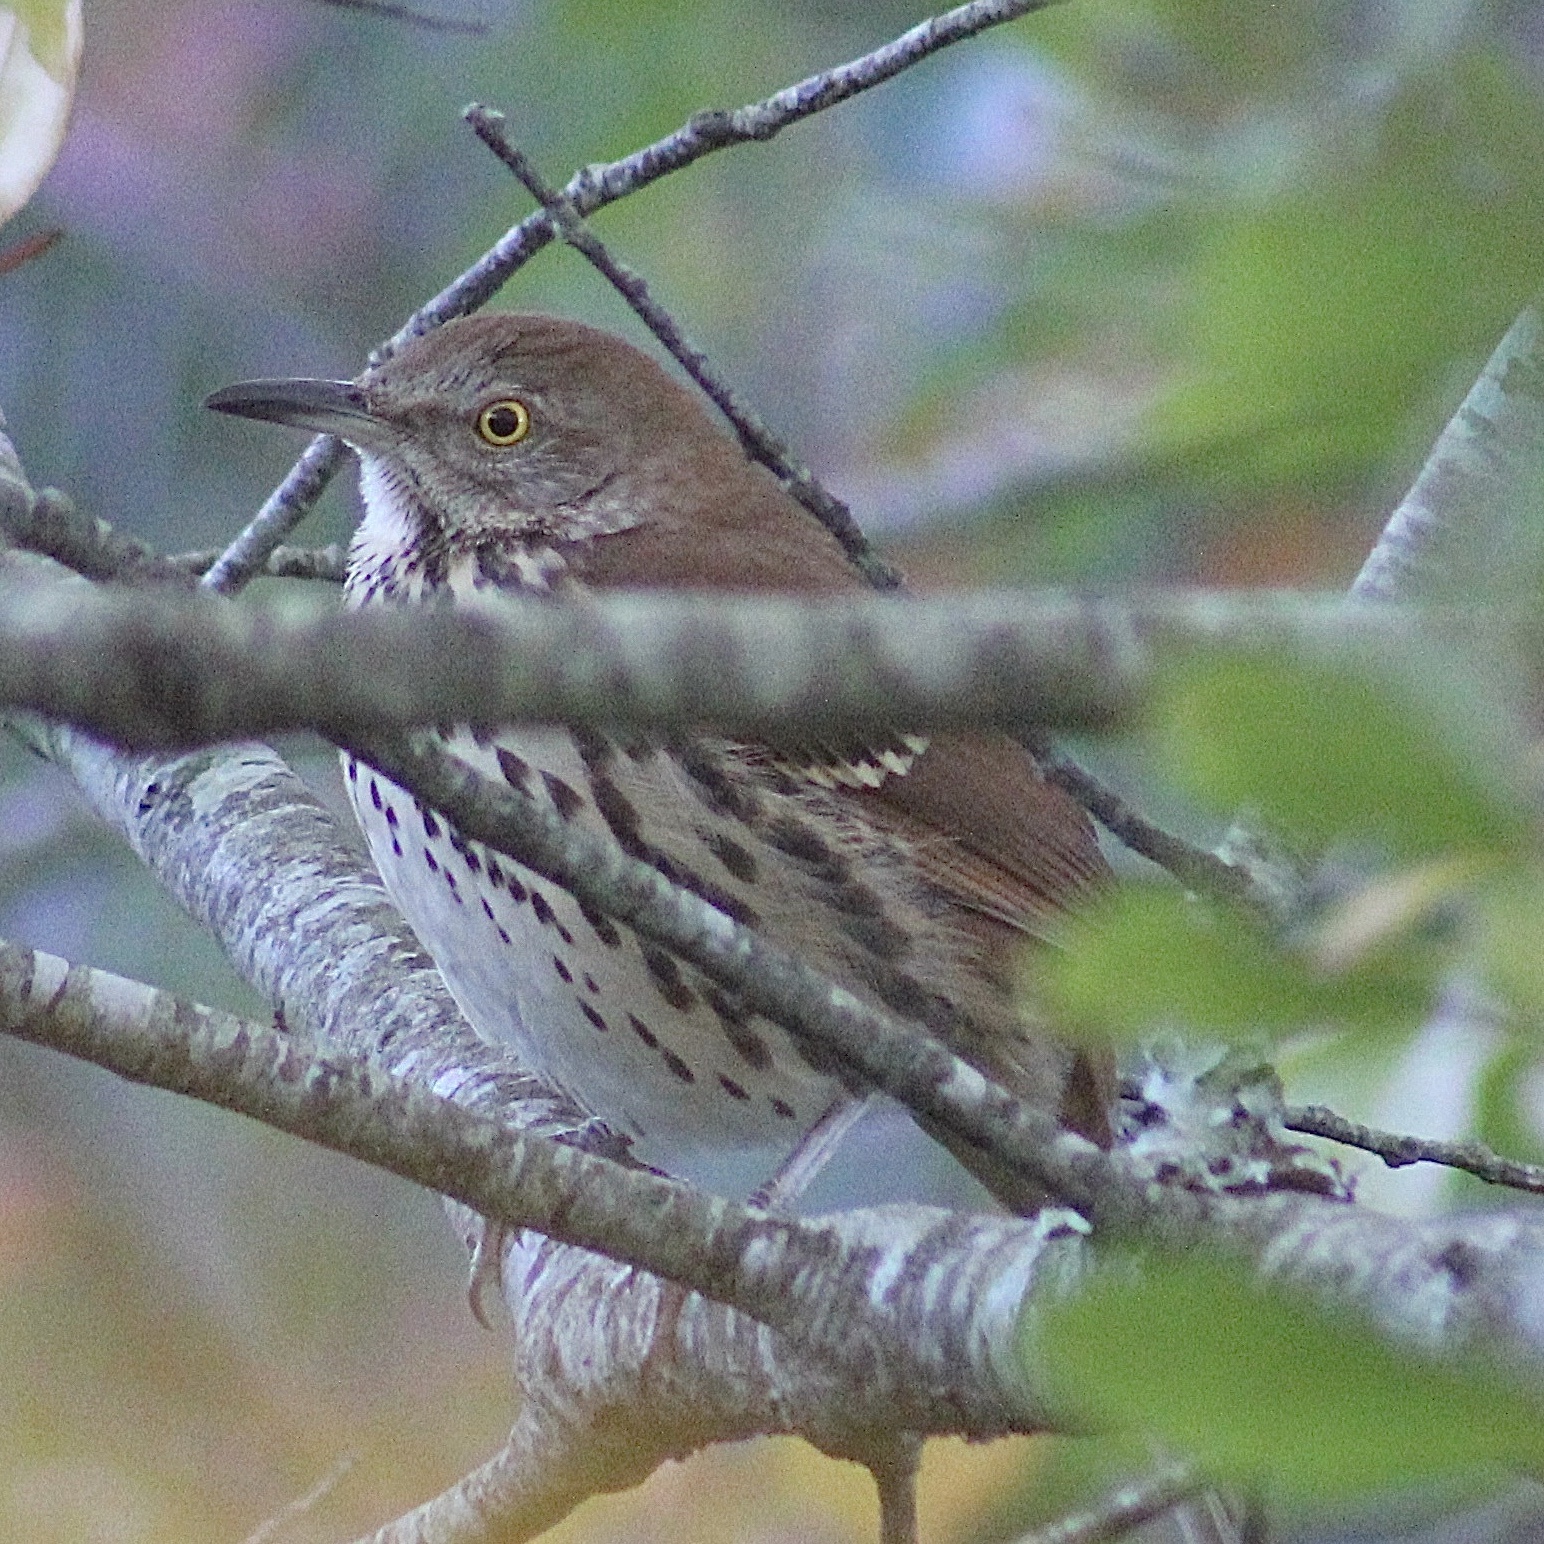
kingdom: Animalia
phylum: Chordata
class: Aves
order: Passeriformes
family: Mimidae
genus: Toxostoma
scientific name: Toxostoma rufum
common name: Brown thrasher
